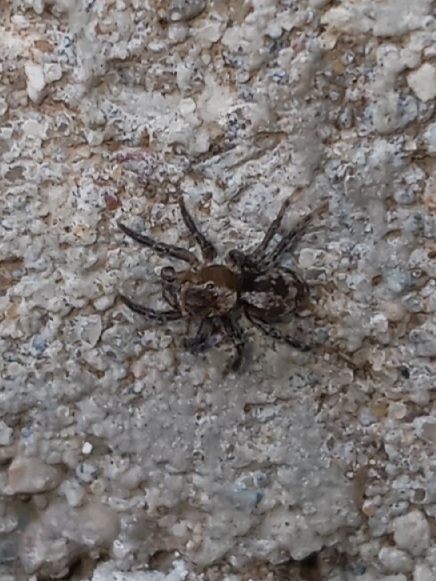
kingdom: Animalia
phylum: Arthropoda
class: Arachnida
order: Araneae
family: Salticidae
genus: Naphrys
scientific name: Naphrys pulex
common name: Flea jumping spider
